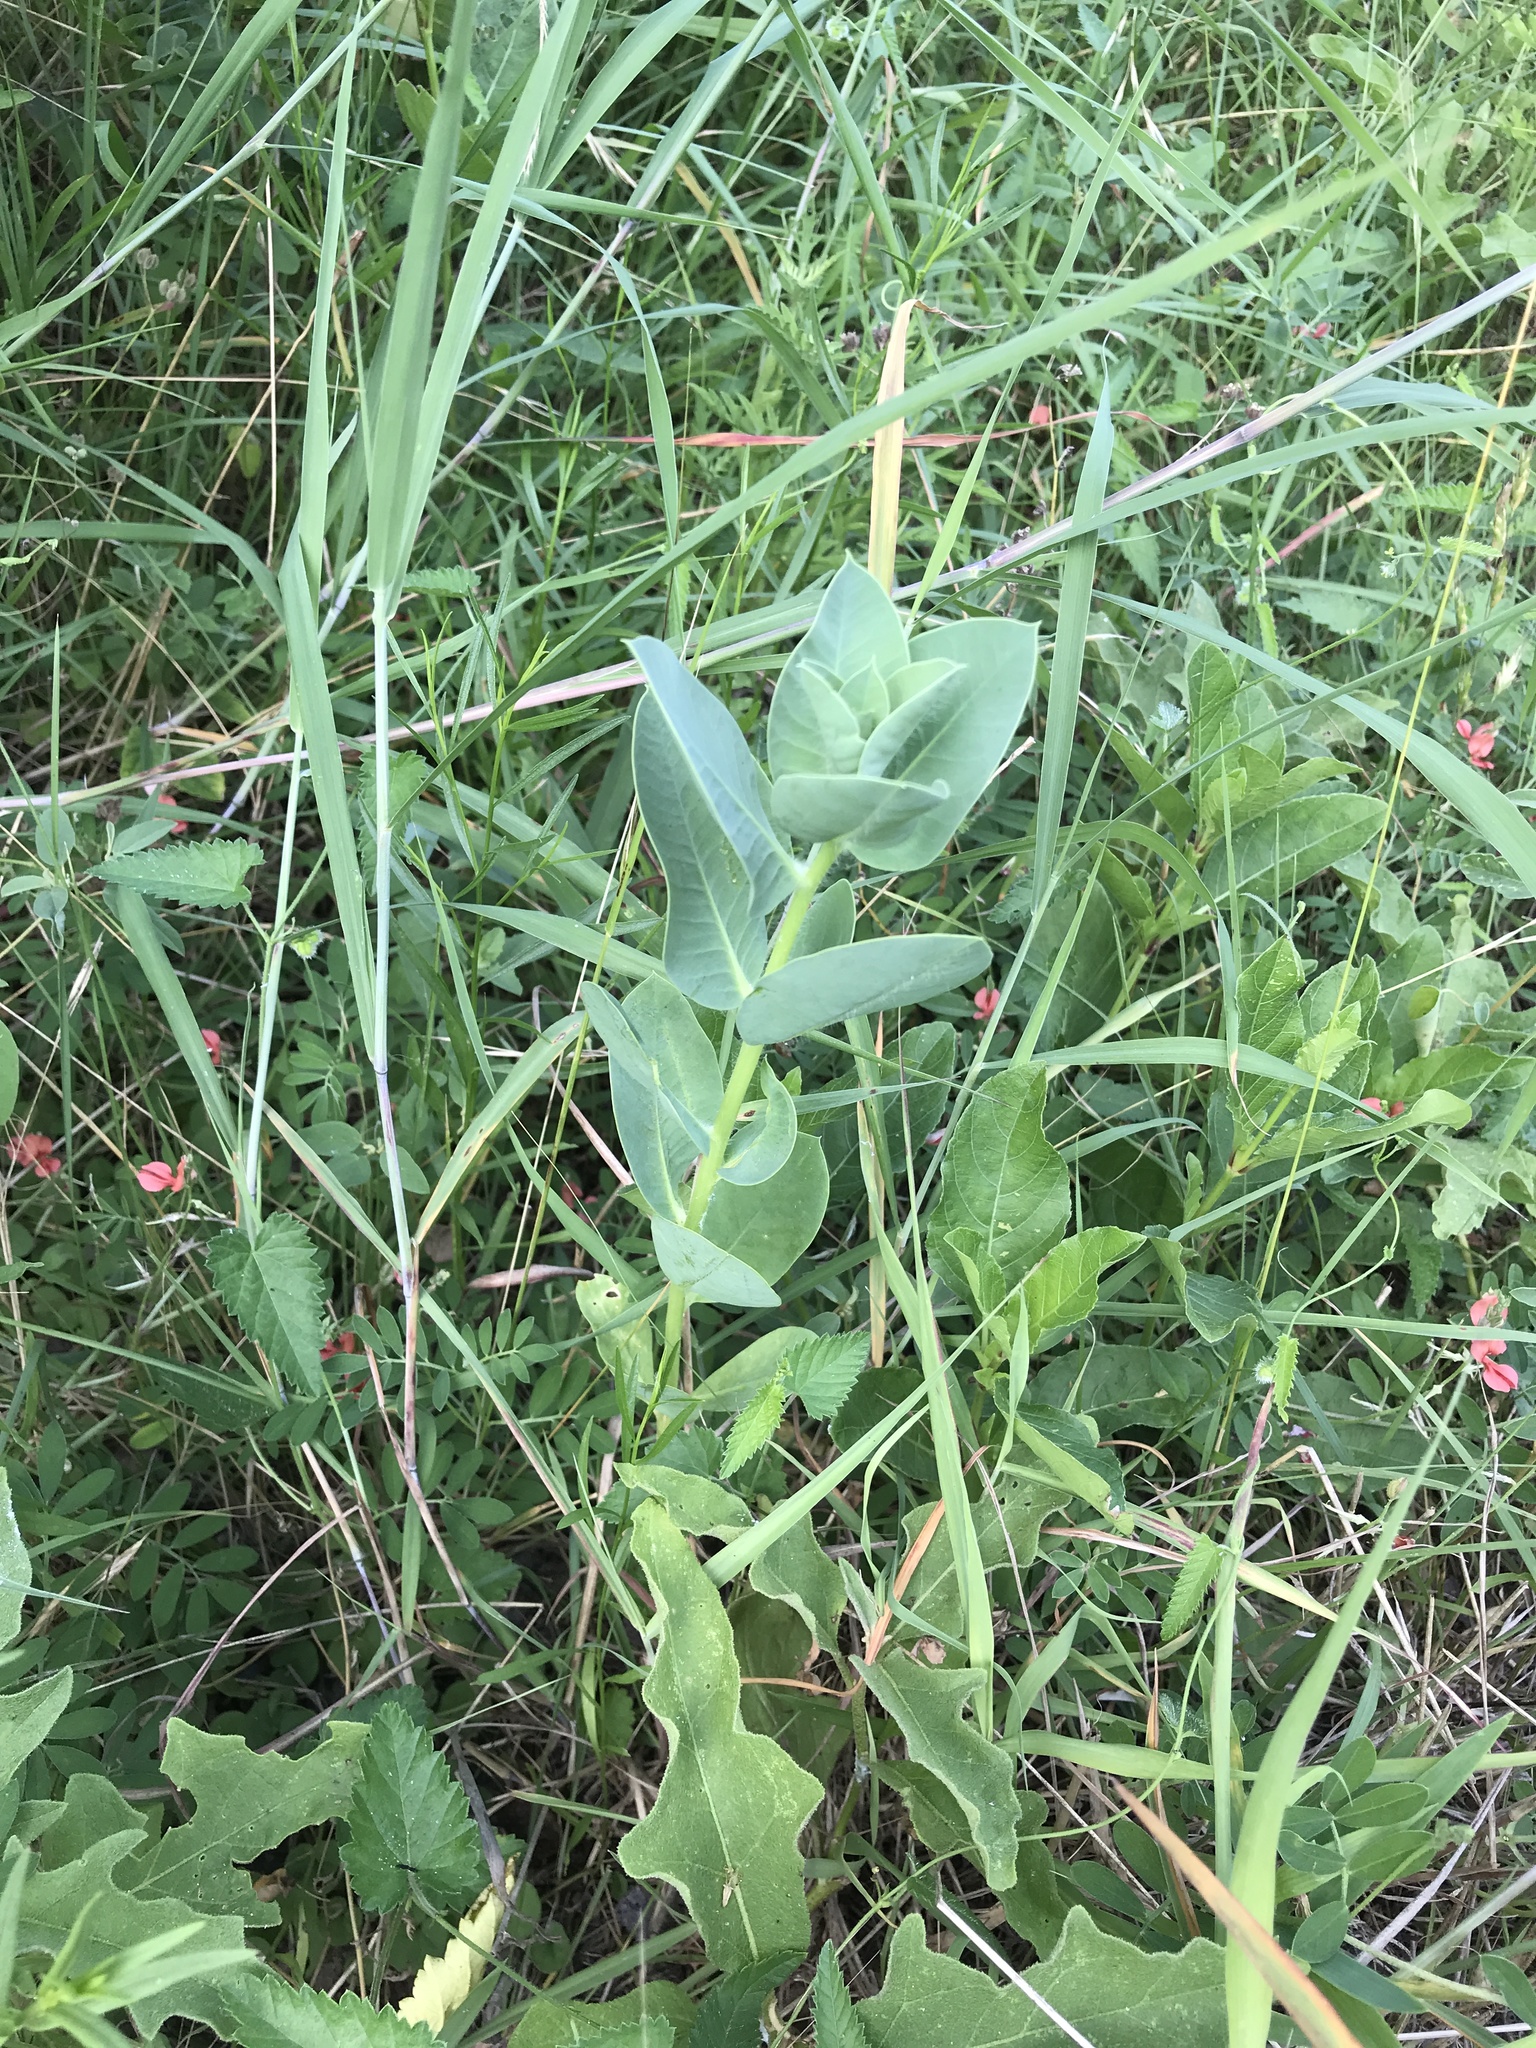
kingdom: Plantae
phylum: Tracheophyta
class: Magnoliopsida
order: Malpighiales
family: Euphorbiaceae
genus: Euphorbia
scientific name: Euphorbia marginata
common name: Ghostweed
